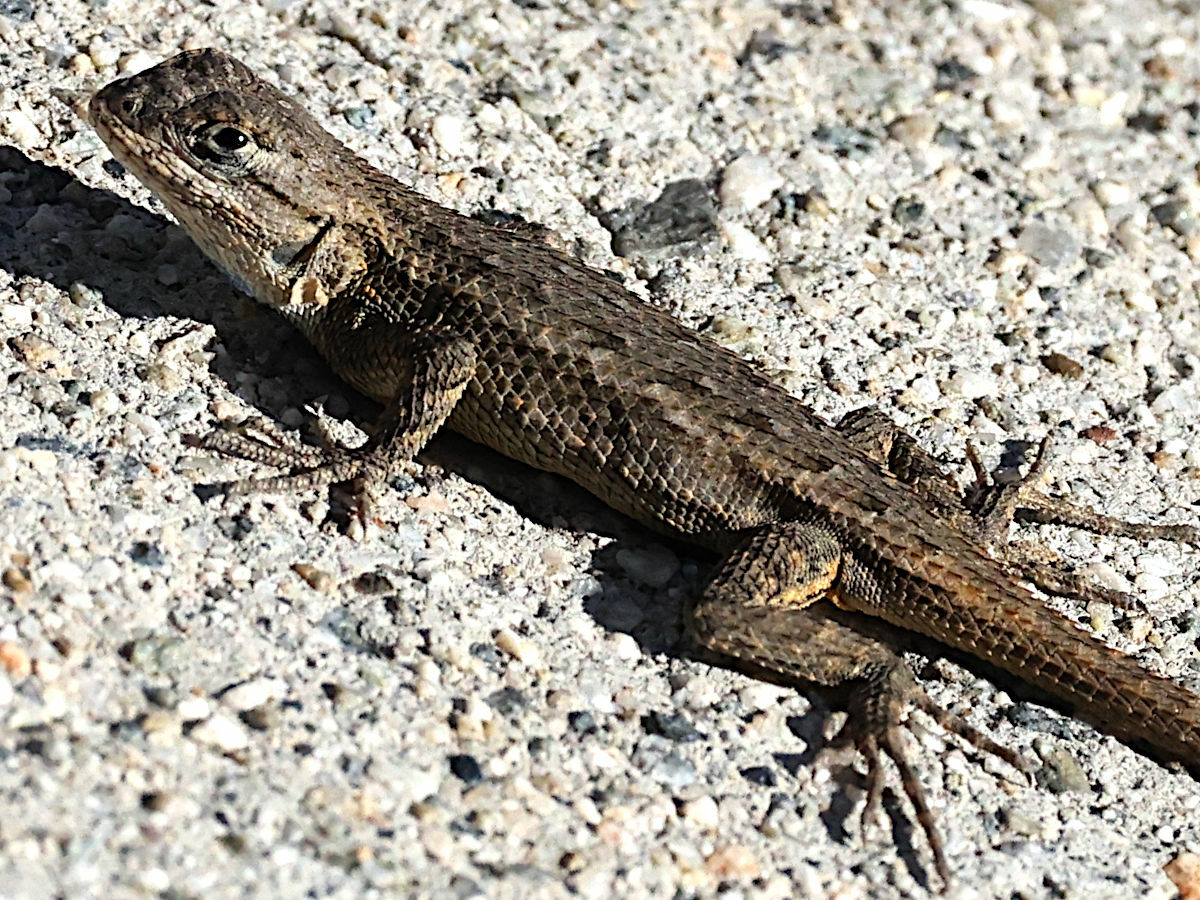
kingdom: Animalia
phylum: Chordata
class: Squamata
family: Phrynosomatidae
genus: Sceloporus
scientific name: Sceloporus occidentalis
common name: Western fence lizard
